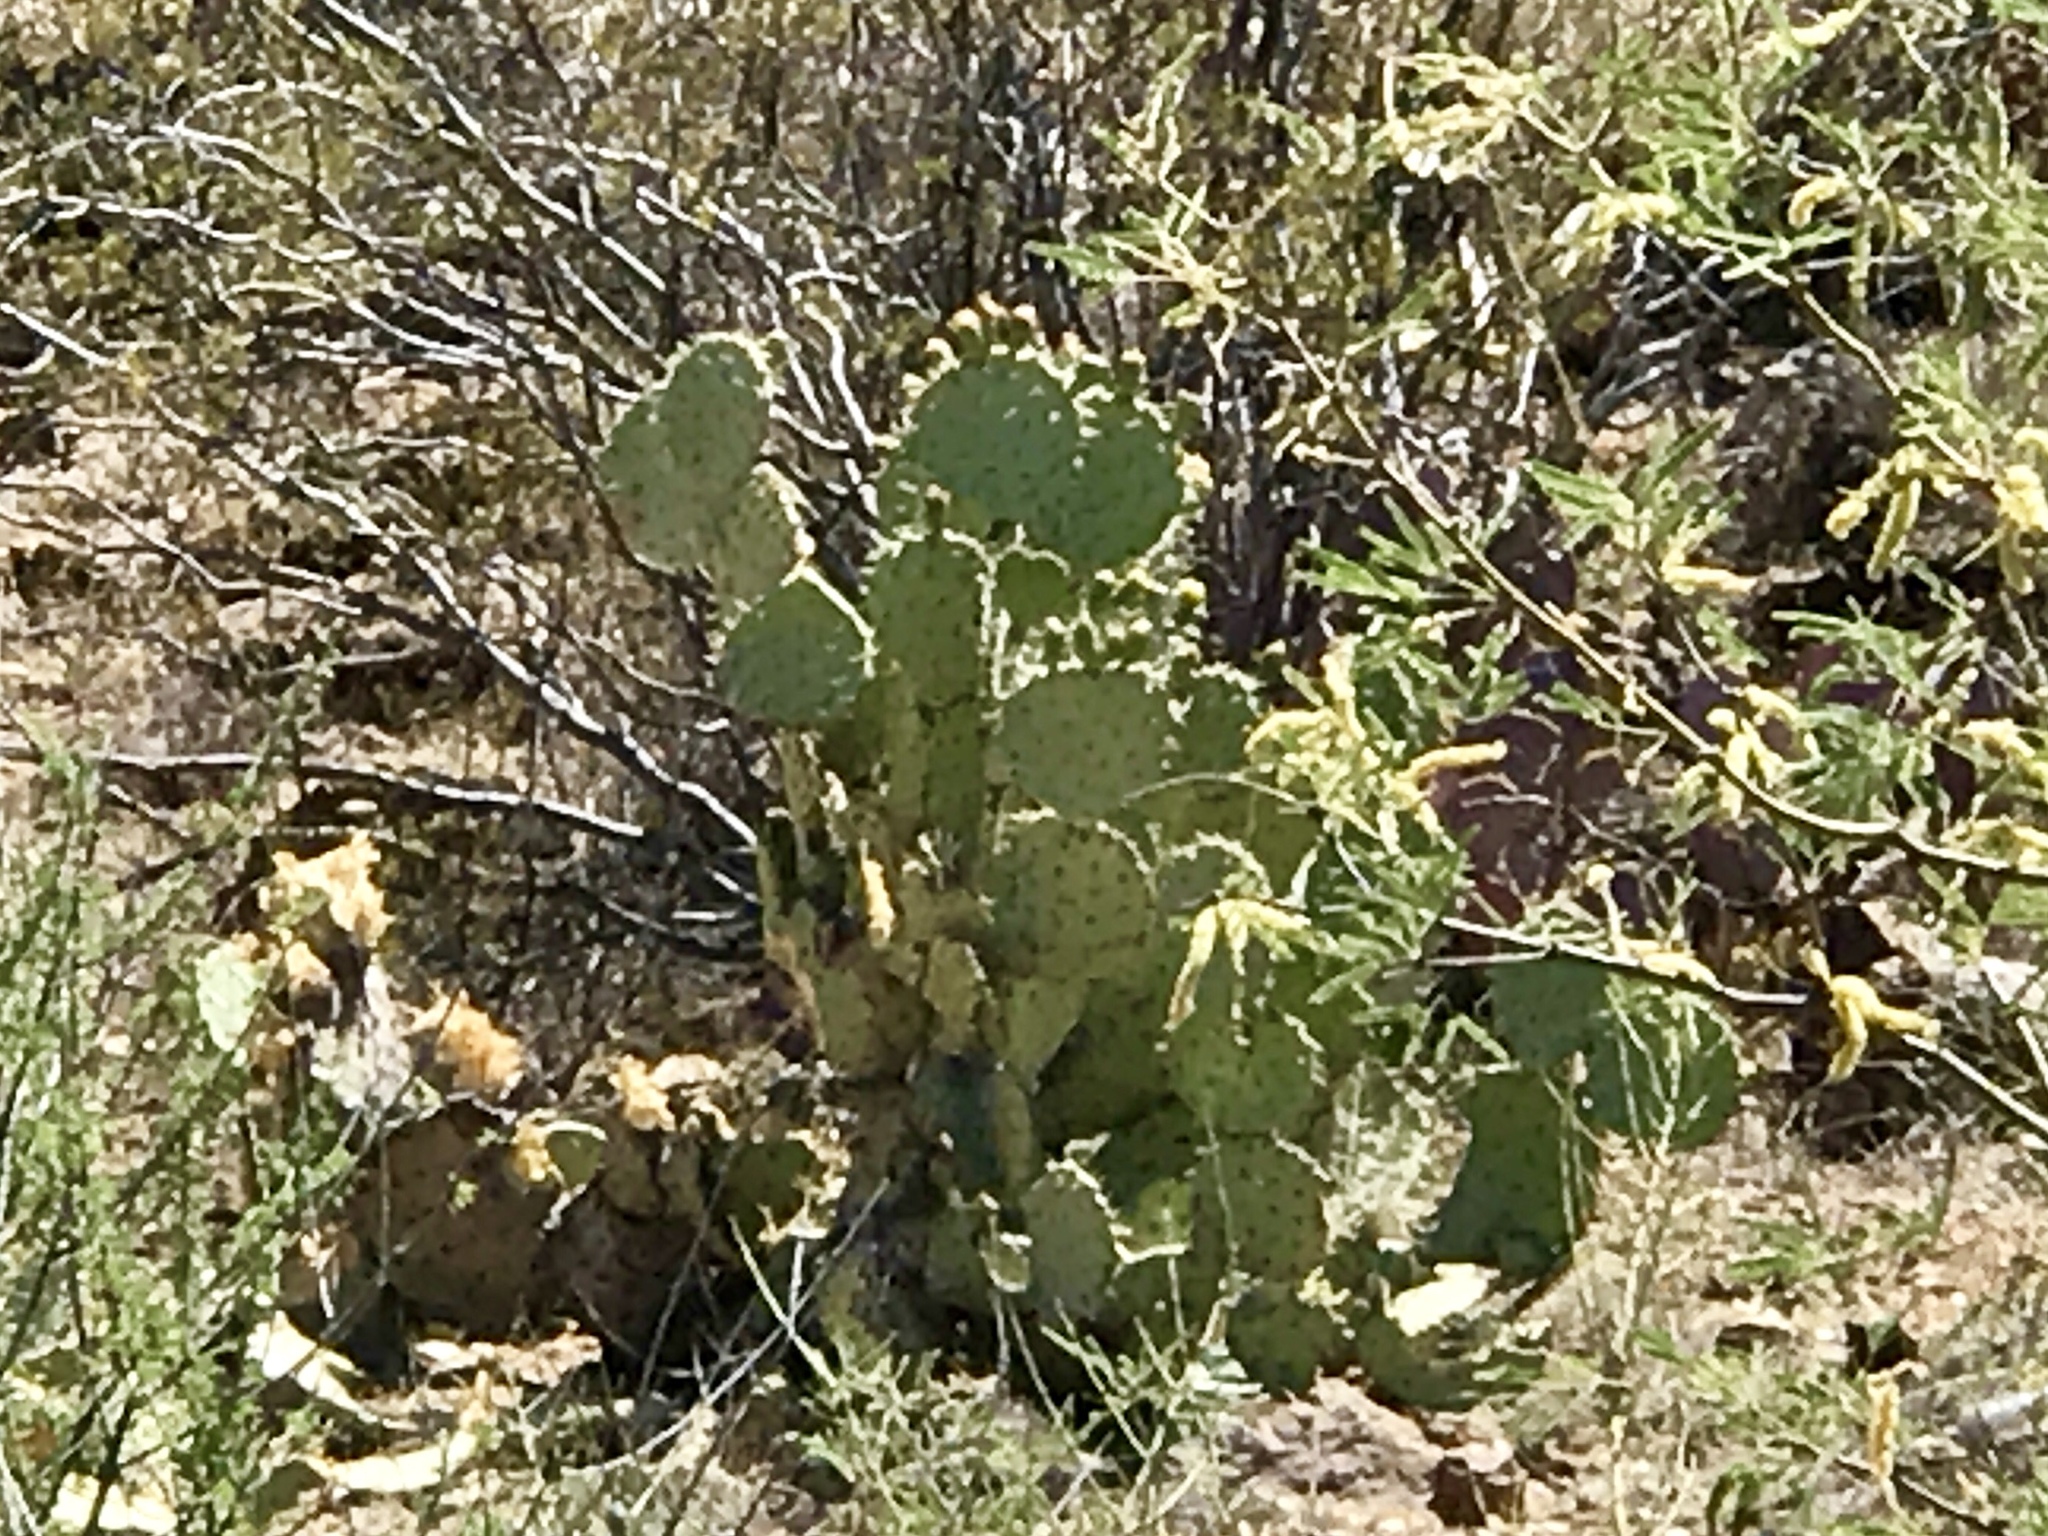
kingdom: Plantae
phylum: Tracheophyta
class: Magnoliopsida
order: Caryophyllales
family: Cactaceae
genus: Opuntia
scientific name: Opuntia engelmannii
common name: Cactus-apple
